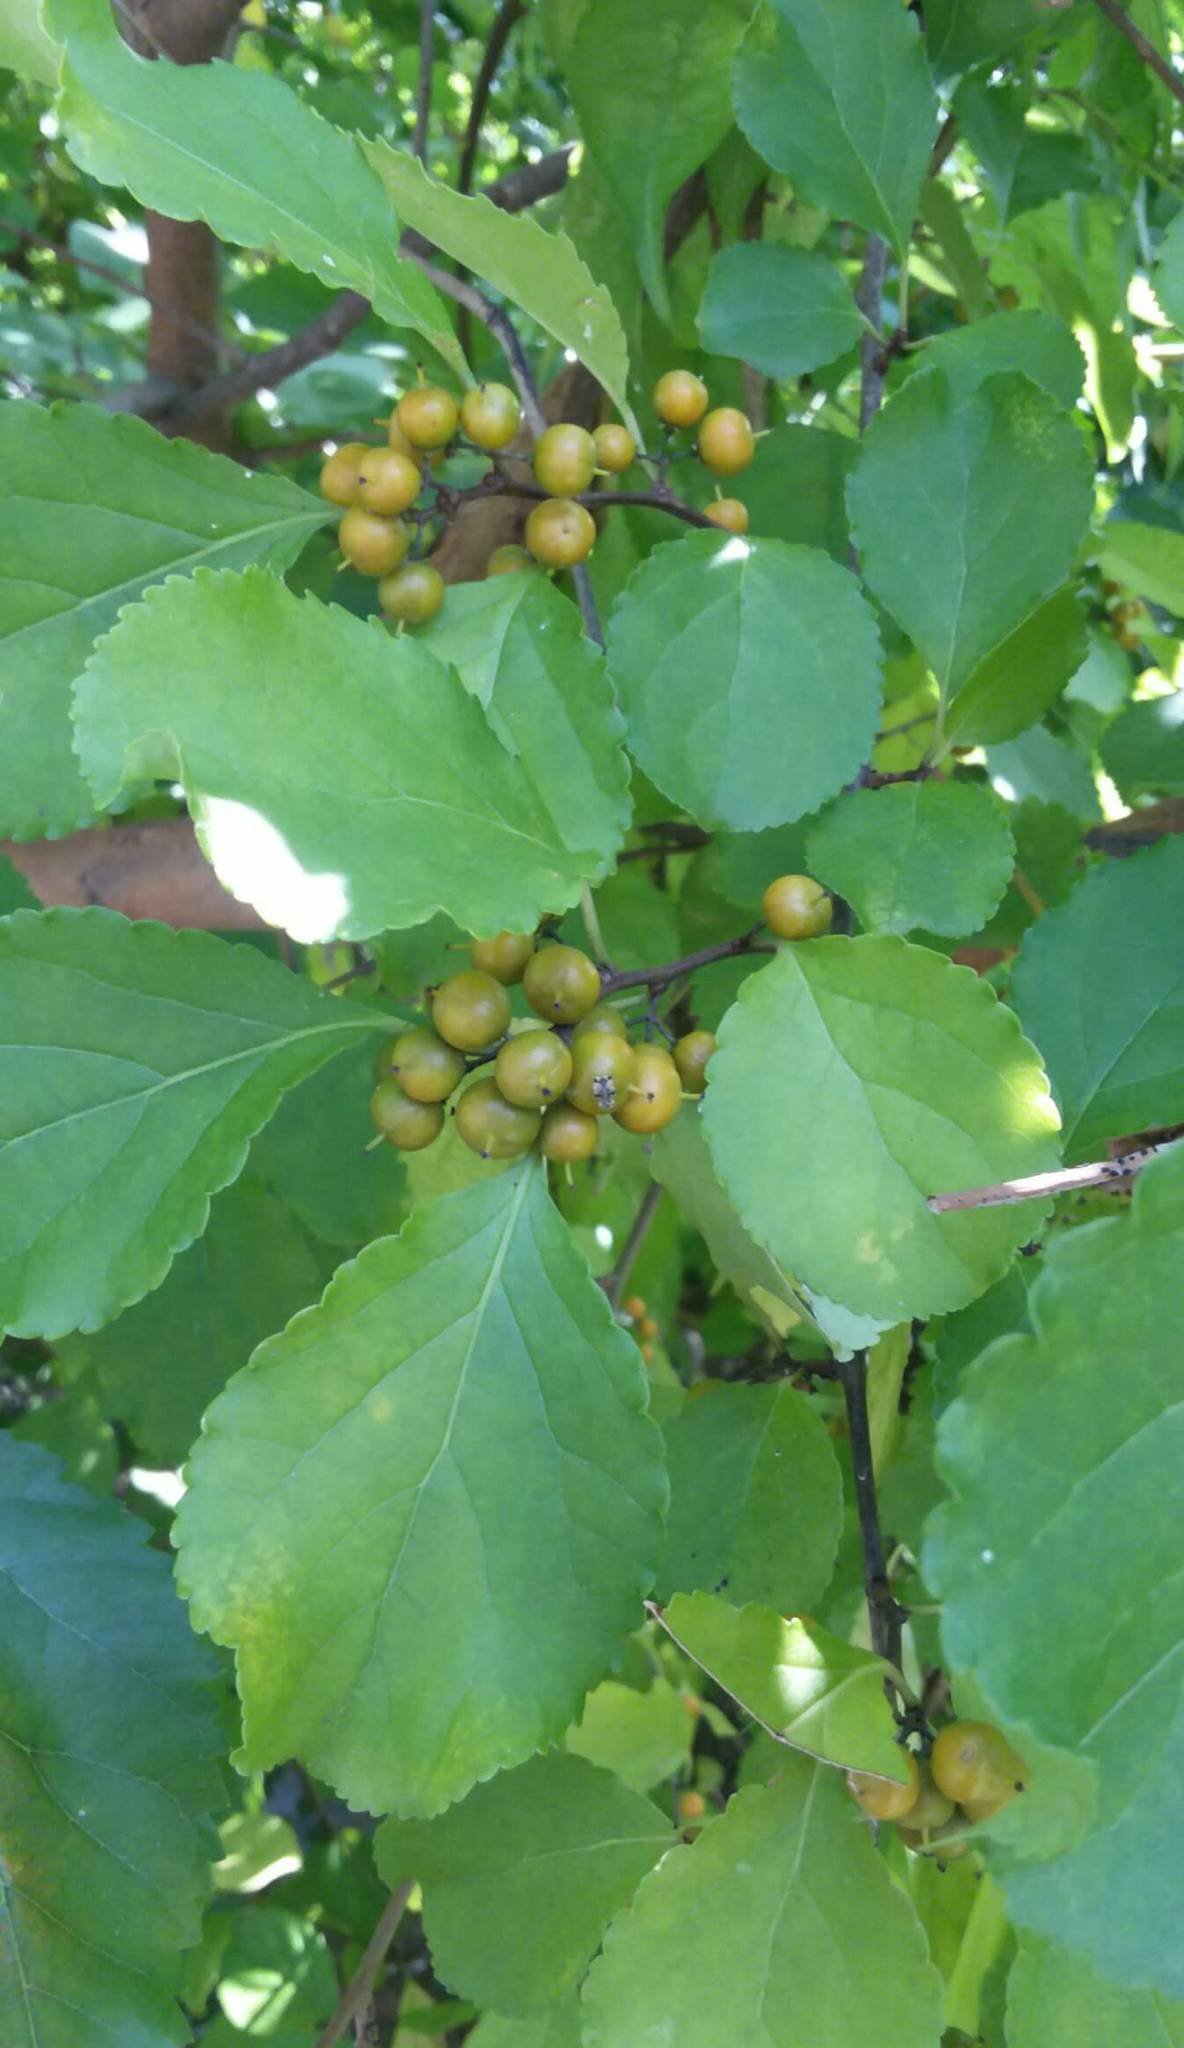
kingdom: Plantae
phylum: Tracheophyta
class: Magnoliopsida
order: Celastrales
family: Celastraceae
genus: Celastrus
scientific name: Celastrus orbiculatus
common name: Oriental bittersweet
